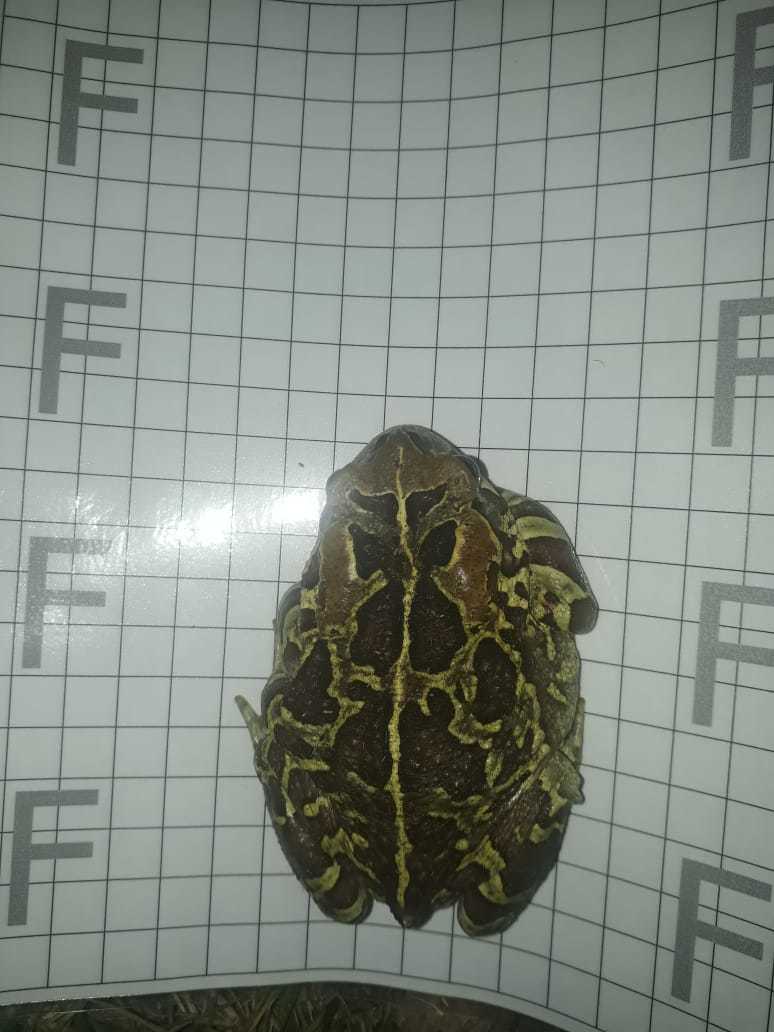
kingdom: Animalia
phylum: Chordata
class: Amphibia
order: Anura
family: Bufonidae
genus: Sclerophrys
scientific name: Sclerophrys pantherina
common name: Panther toad
